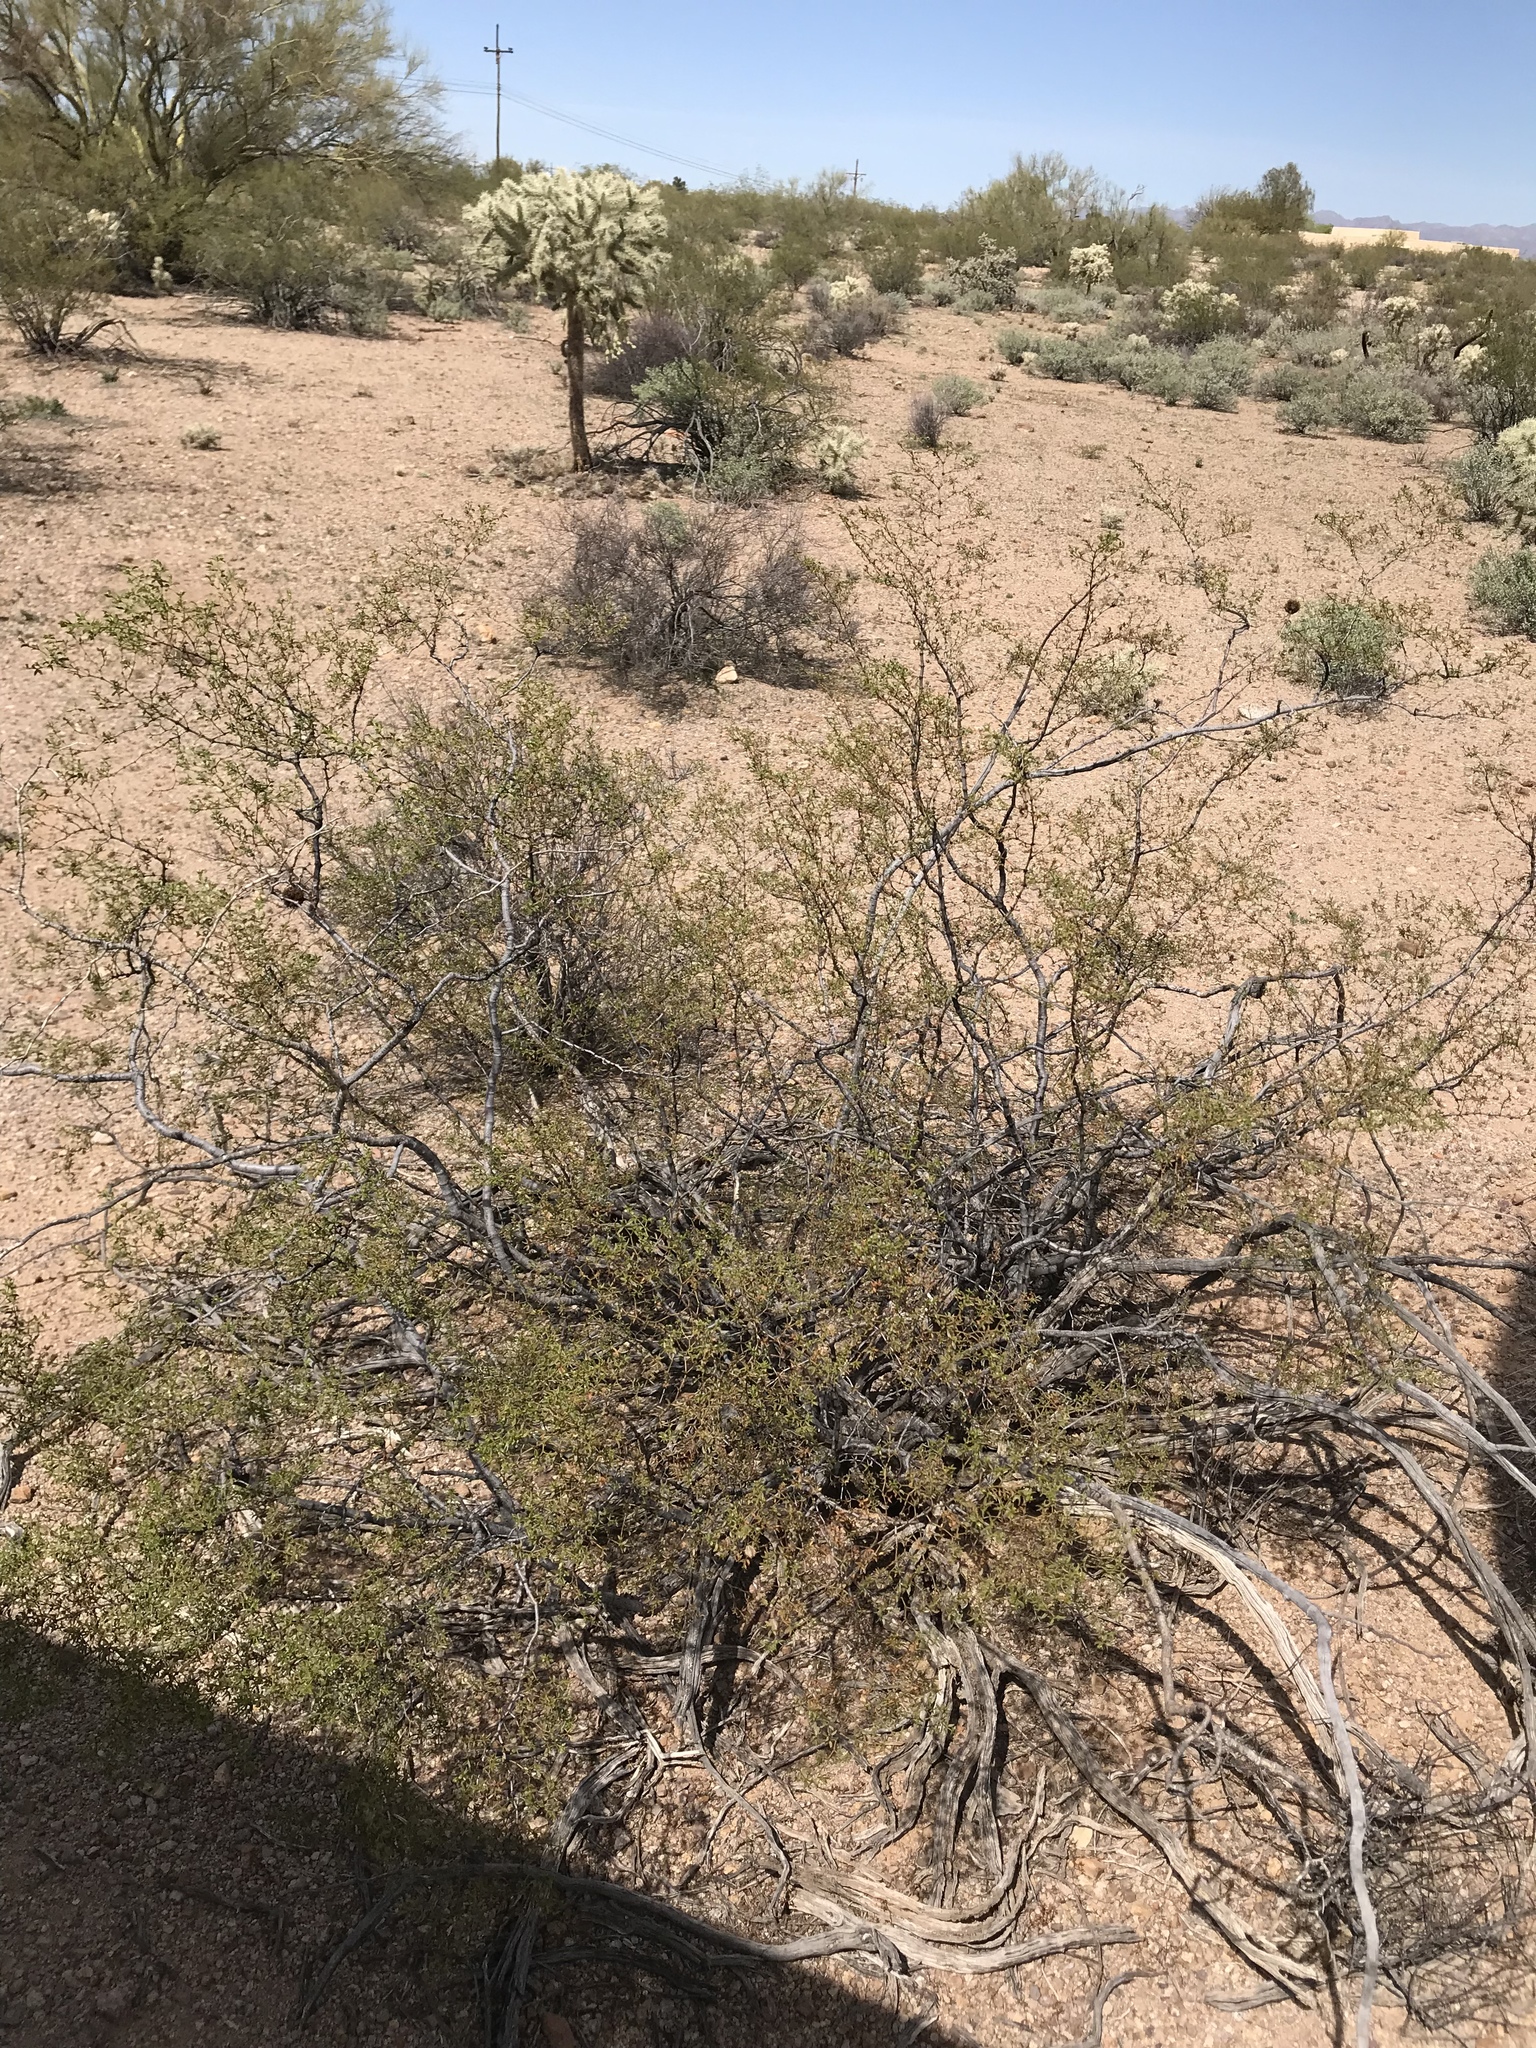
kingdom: Plantae
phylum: Tracheophyta
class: Magnoliopsida
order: Zygophyllales
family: Zygophyllaceae
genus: Larrea
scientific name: Larrea tridentata
